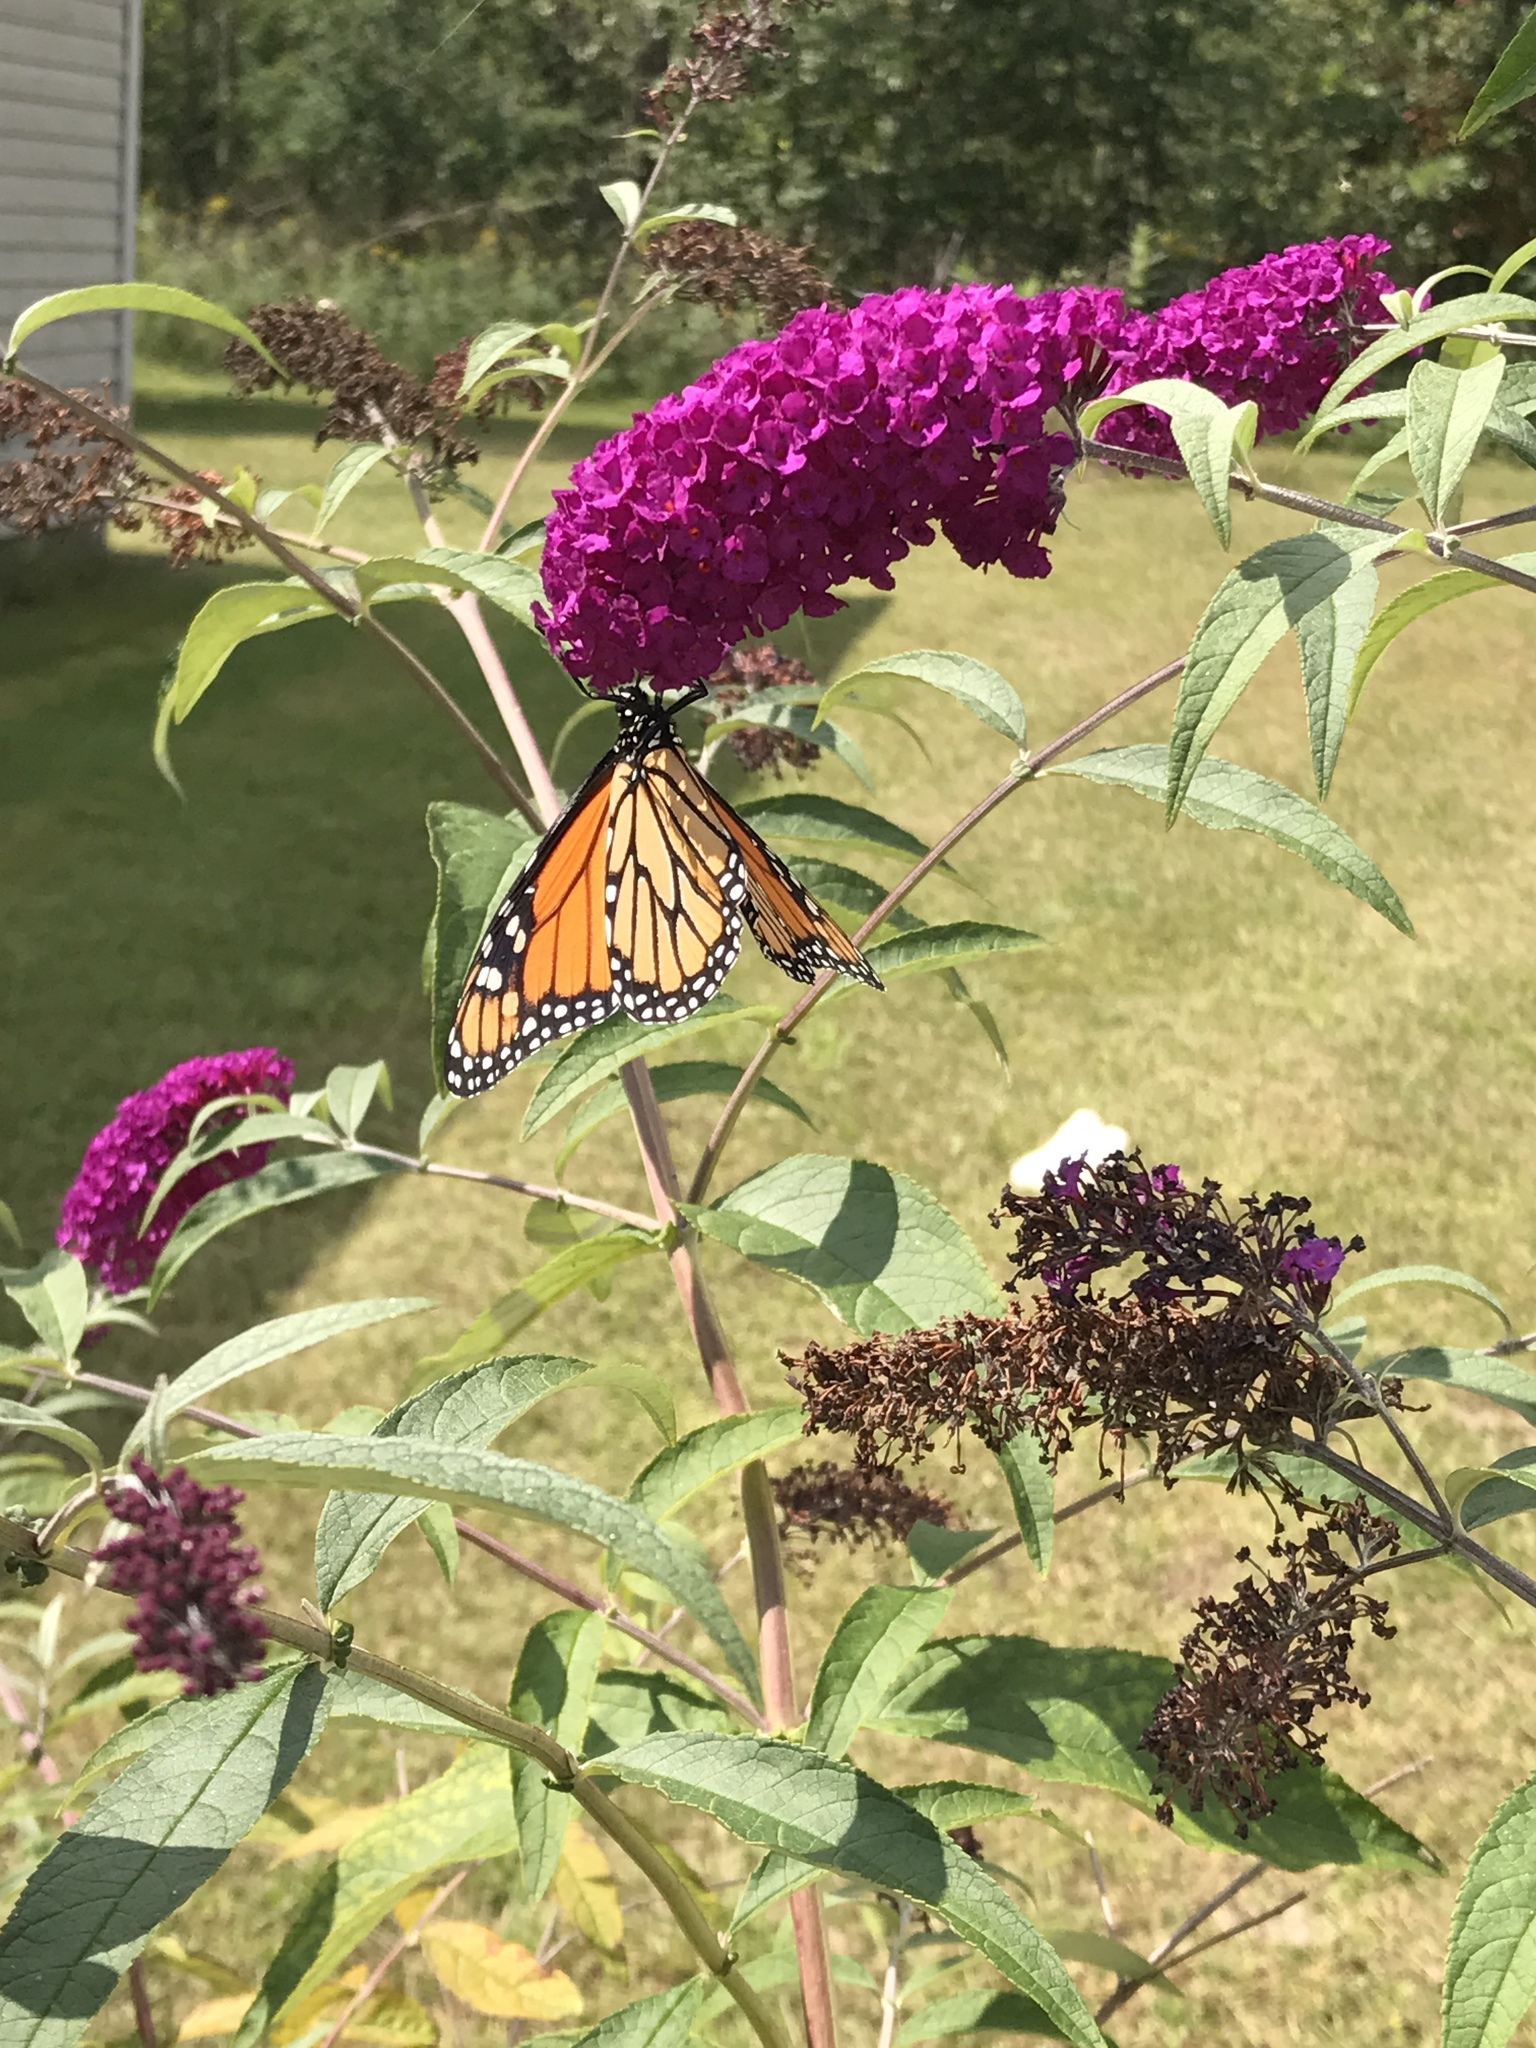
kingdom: Animalia
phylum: Arthropoda
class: Insecta
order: Lepidoptera
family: Nymphalidae
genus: Danaus
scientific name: Danaus plexippus
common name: Monarch
